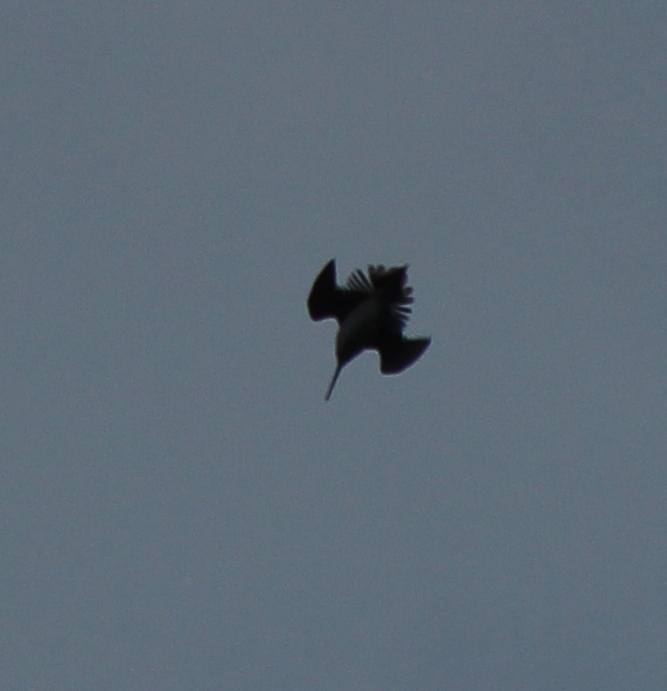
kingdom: Animalia
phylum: Chordata
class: Aves
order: Charadriiformes
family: Scolopacidae
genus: Gallinago
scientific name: Gallinago megala
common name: Swinhoe's snipe
